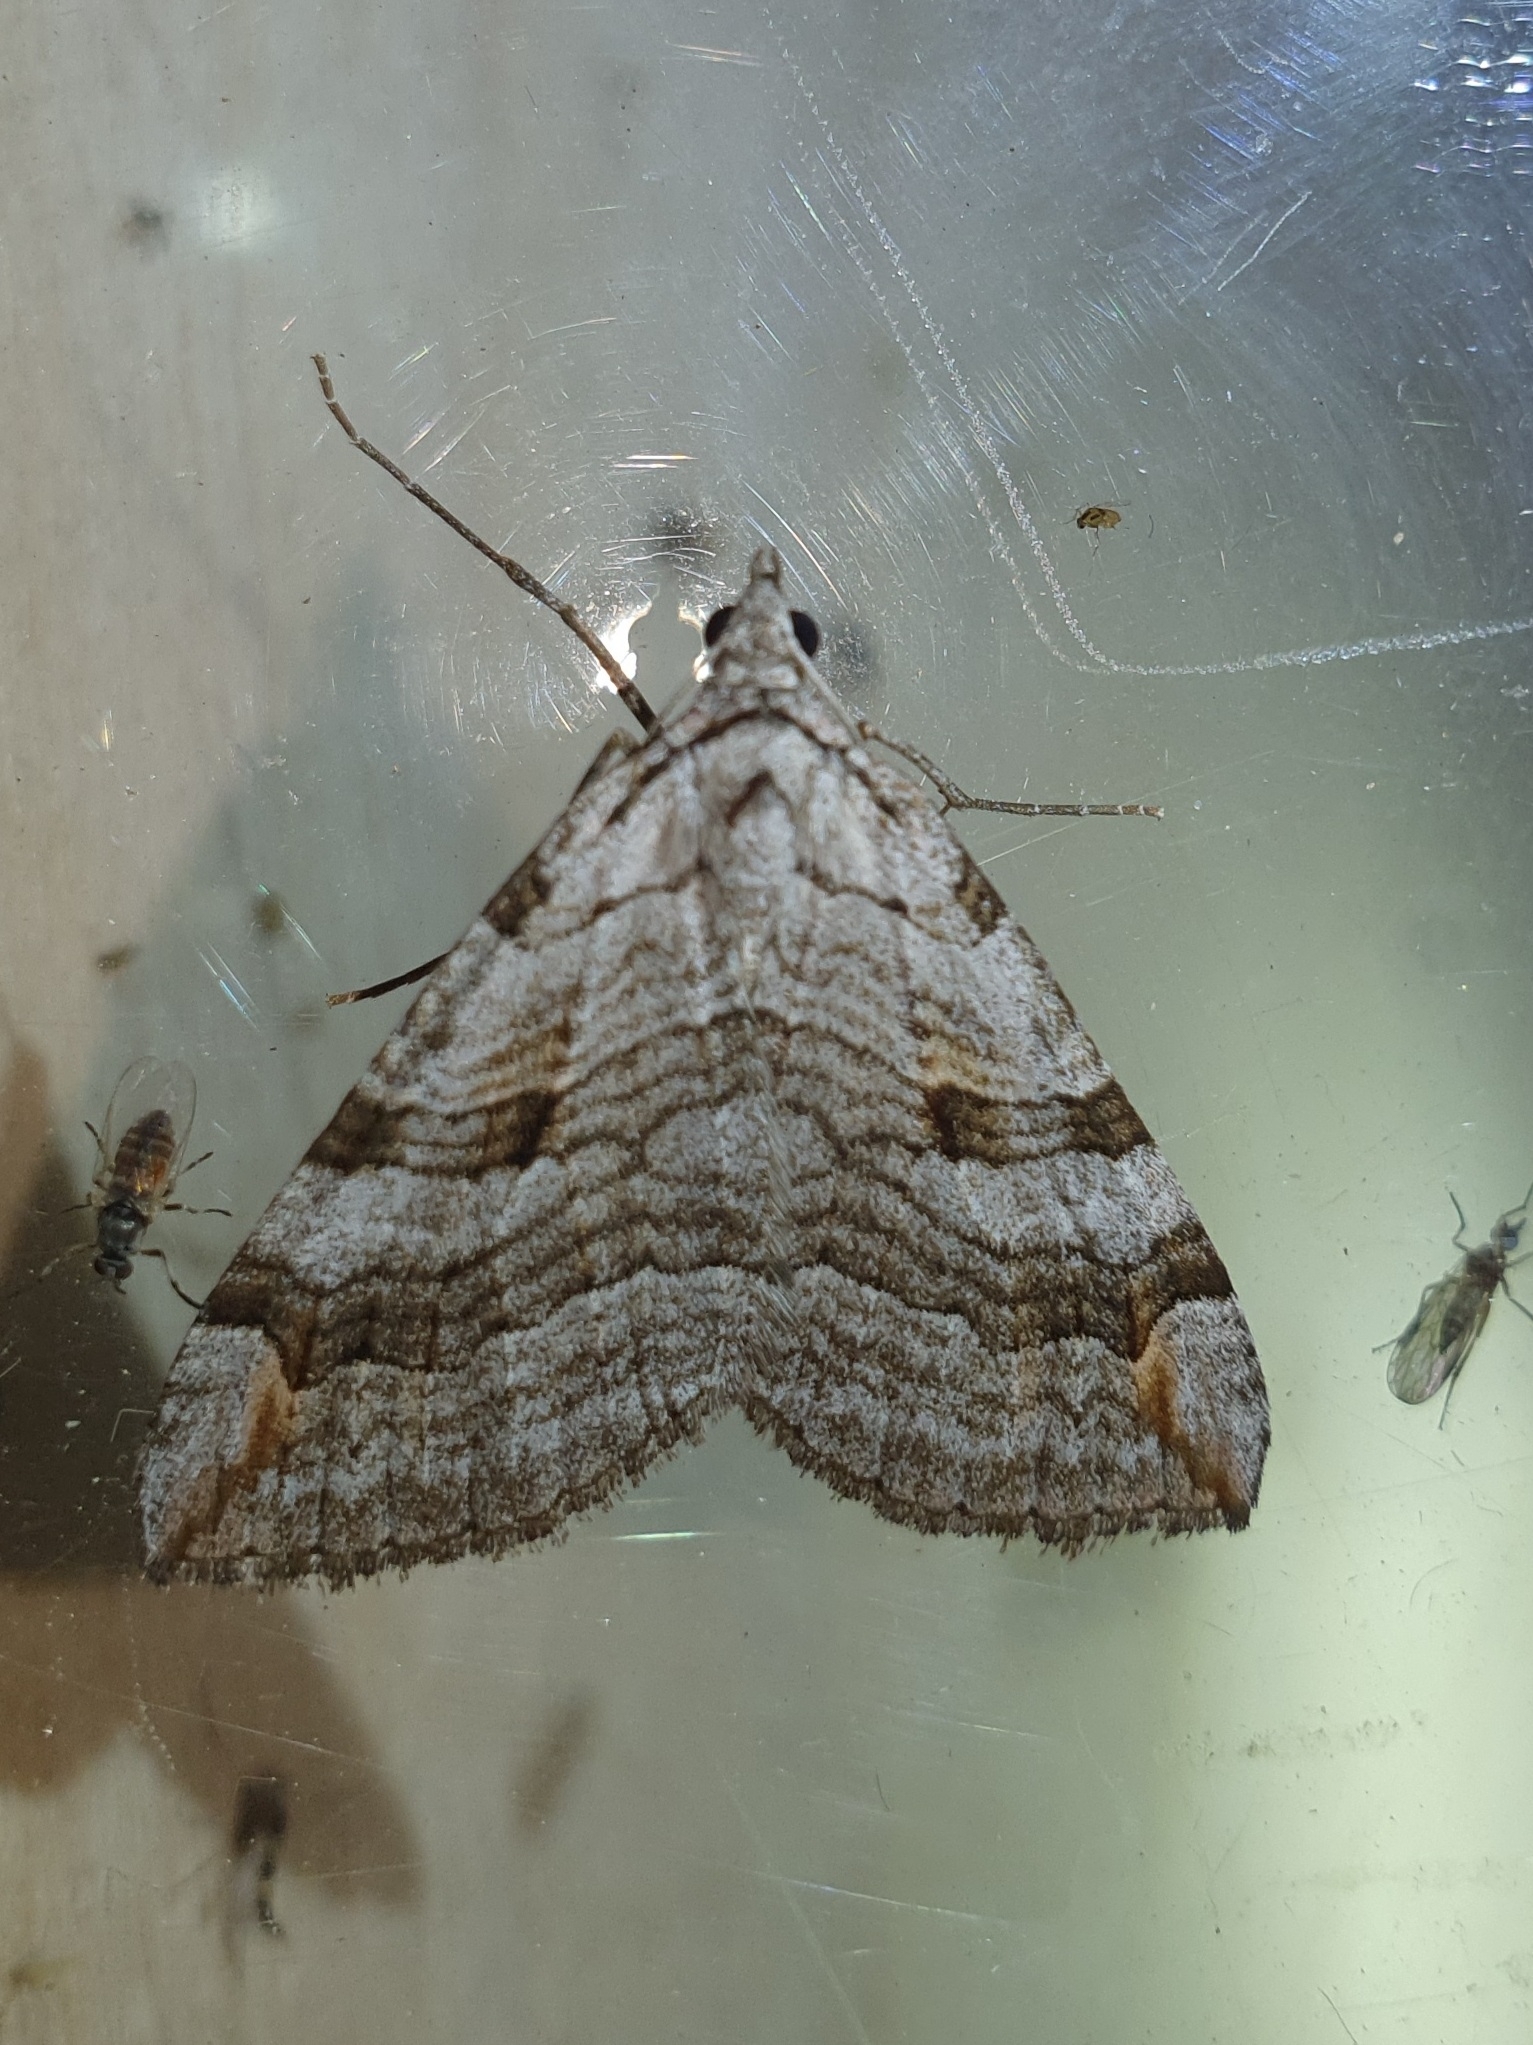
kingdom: Animalia
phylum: Arthropoda
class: Insecta
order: Lepidoptera
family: Geometridae
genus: Aplocera
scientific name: Aplocera plagiata
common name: Treble-bar
